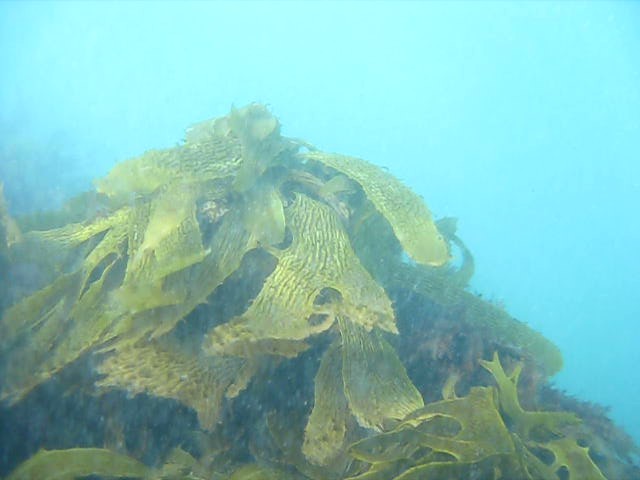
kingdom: Chromista
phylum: Ochrophyta
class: Phaeophyceae
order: Laminariales
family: Lessoniaceae
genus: Ecklonia
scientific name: Ecklonia radiata
